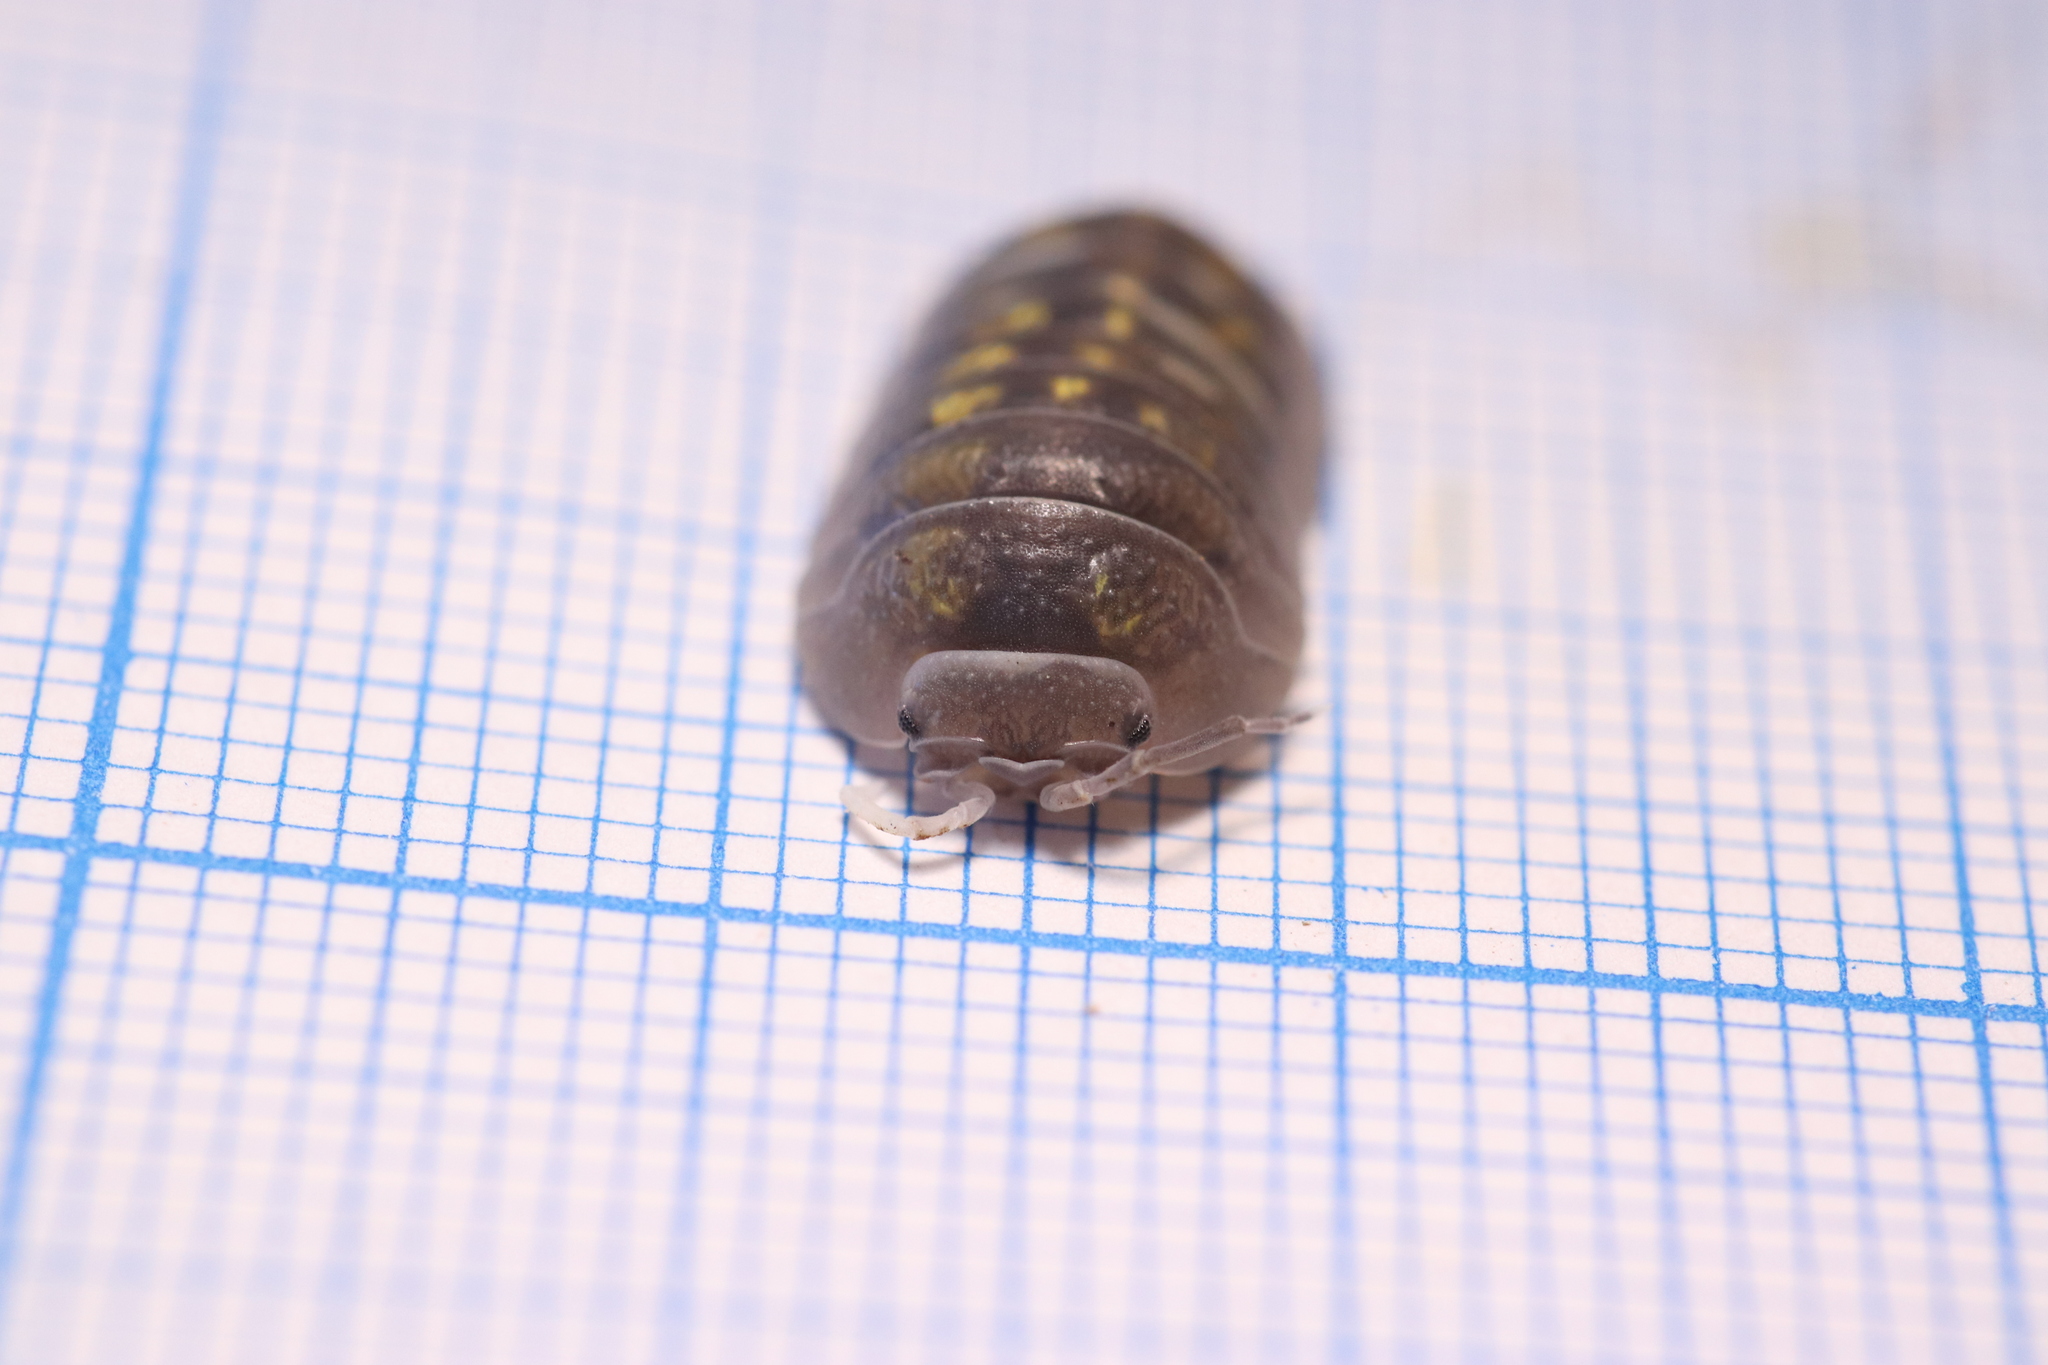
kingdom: Animalia
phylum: Arthropoda
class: Malacostraca
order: Isopoda
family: Armadillidiidae
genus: Armadillidium
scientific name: Armadillidium granulatum
